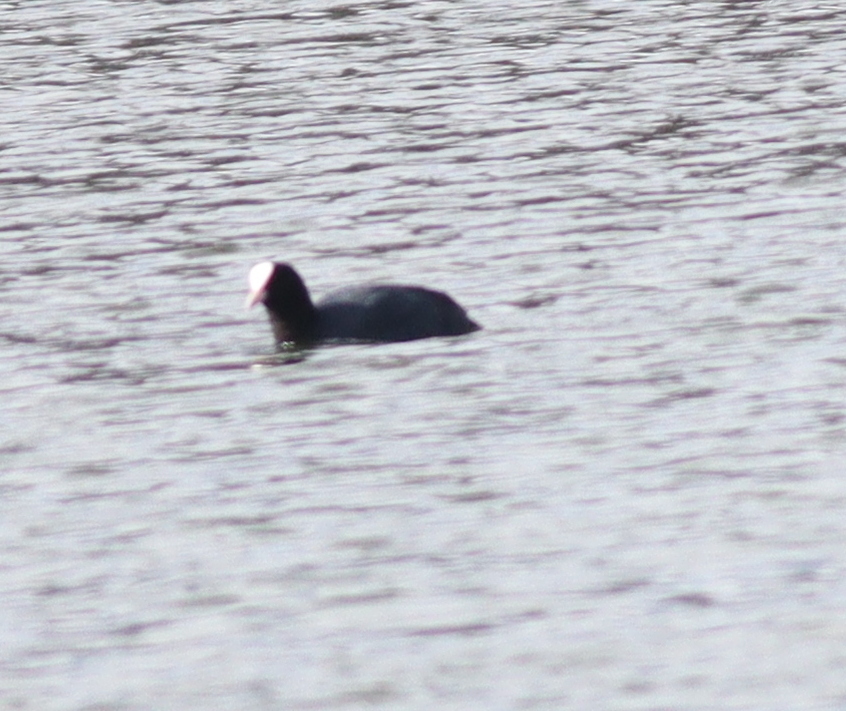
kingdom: Animalia
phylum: Chordata
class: Aves
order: Gruiformes
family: Rallidae
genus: Fulica
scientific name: Fulica atra
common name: Eurasian coot
